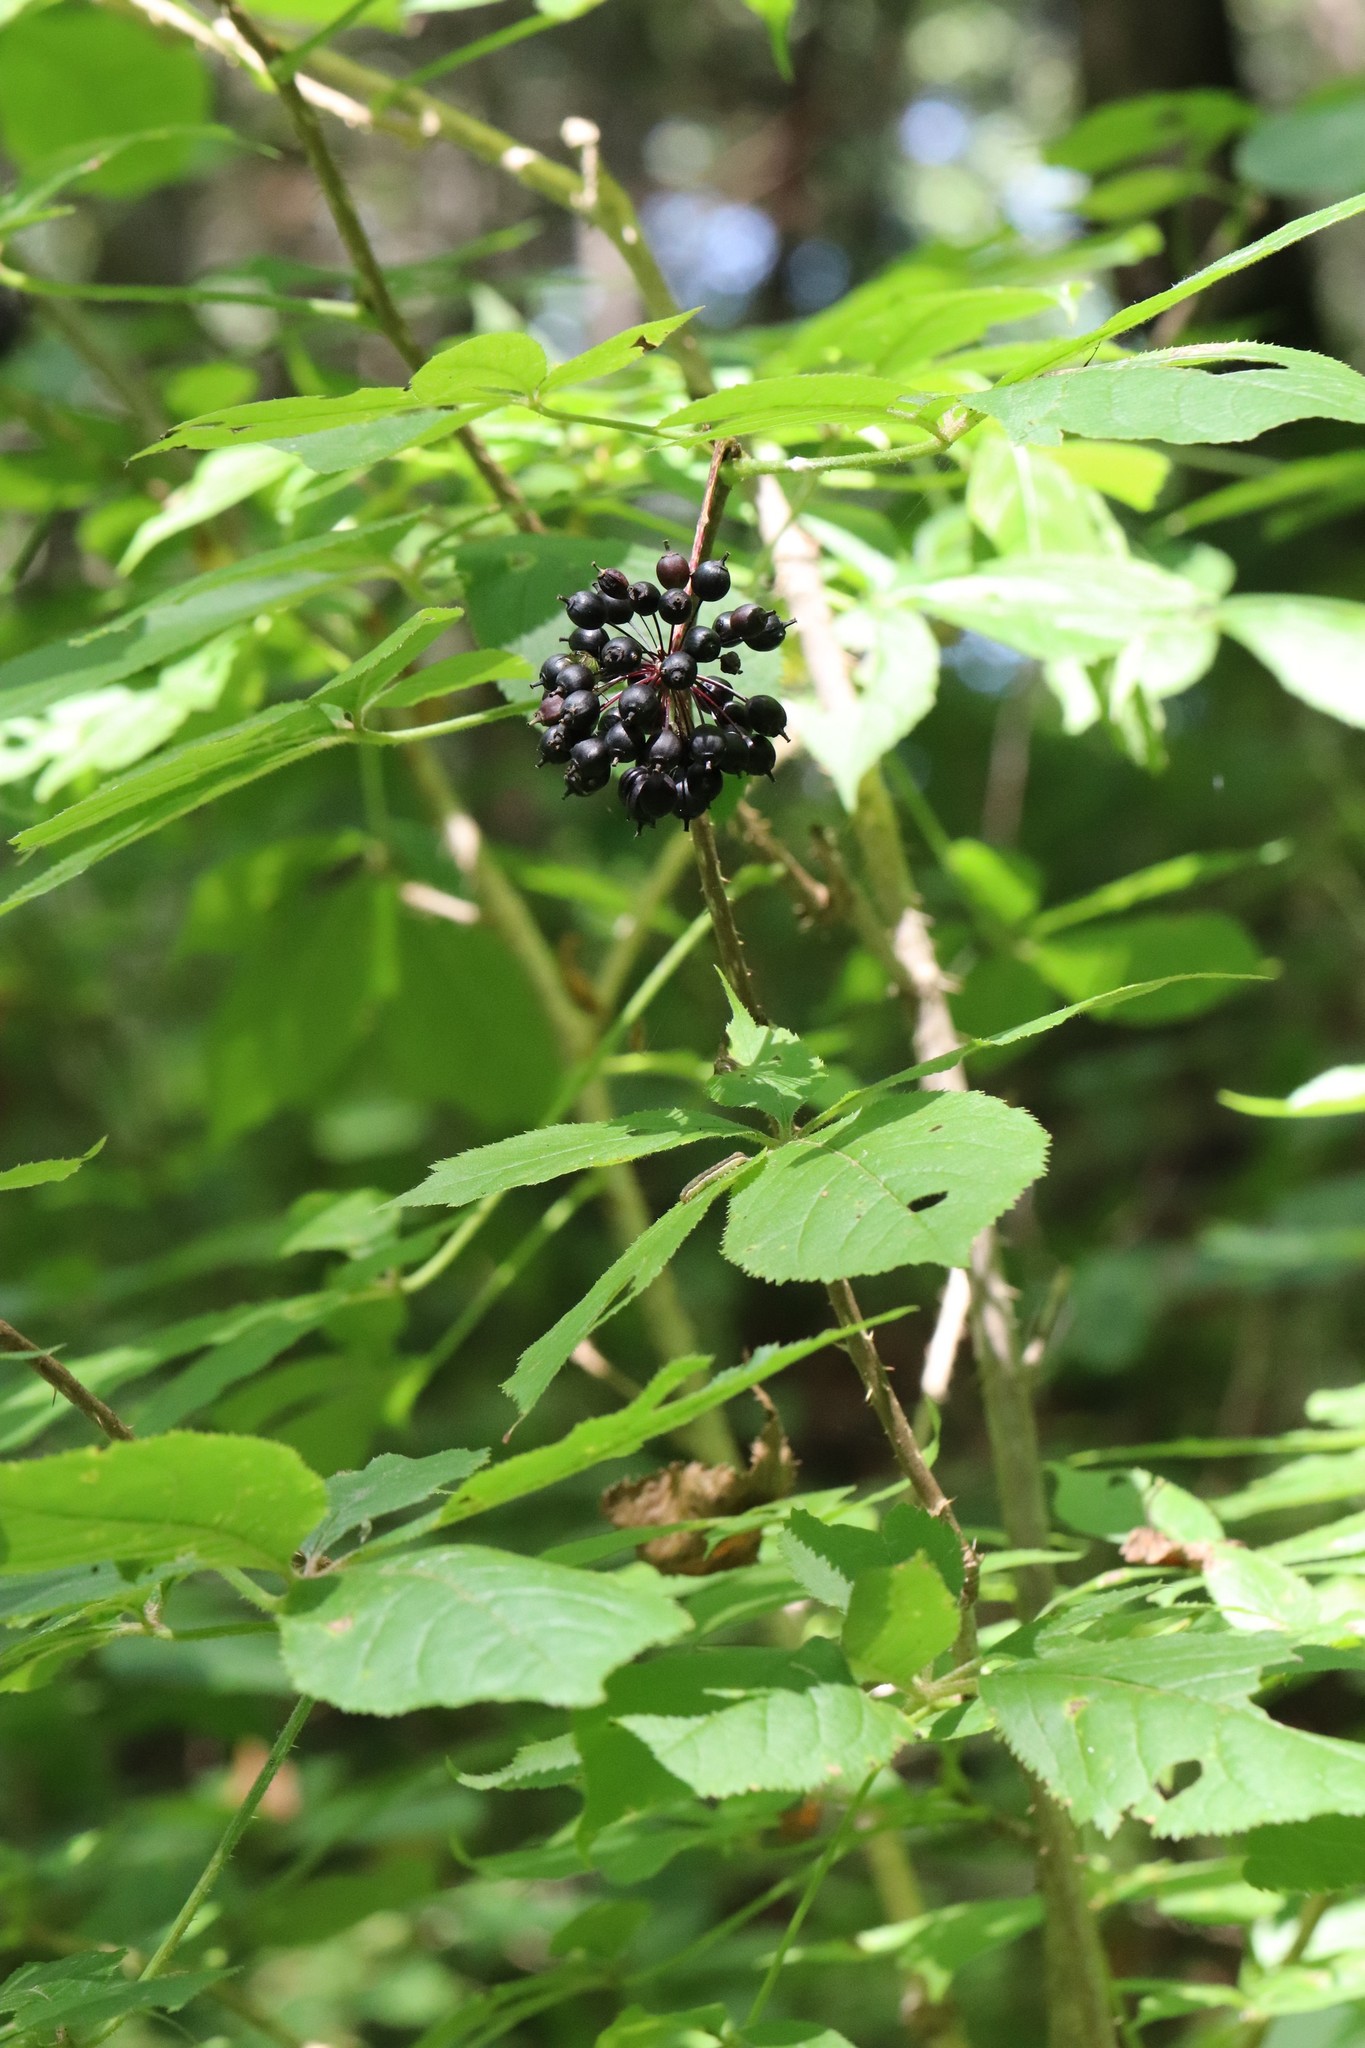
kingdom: Plantae
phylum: Tracheophyta
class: Magnoliopsida
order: Apiales
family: Araliaceae
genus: Eleutherococcus
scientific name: Eleutherococcus senticosus
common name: Siberian-ginseng
